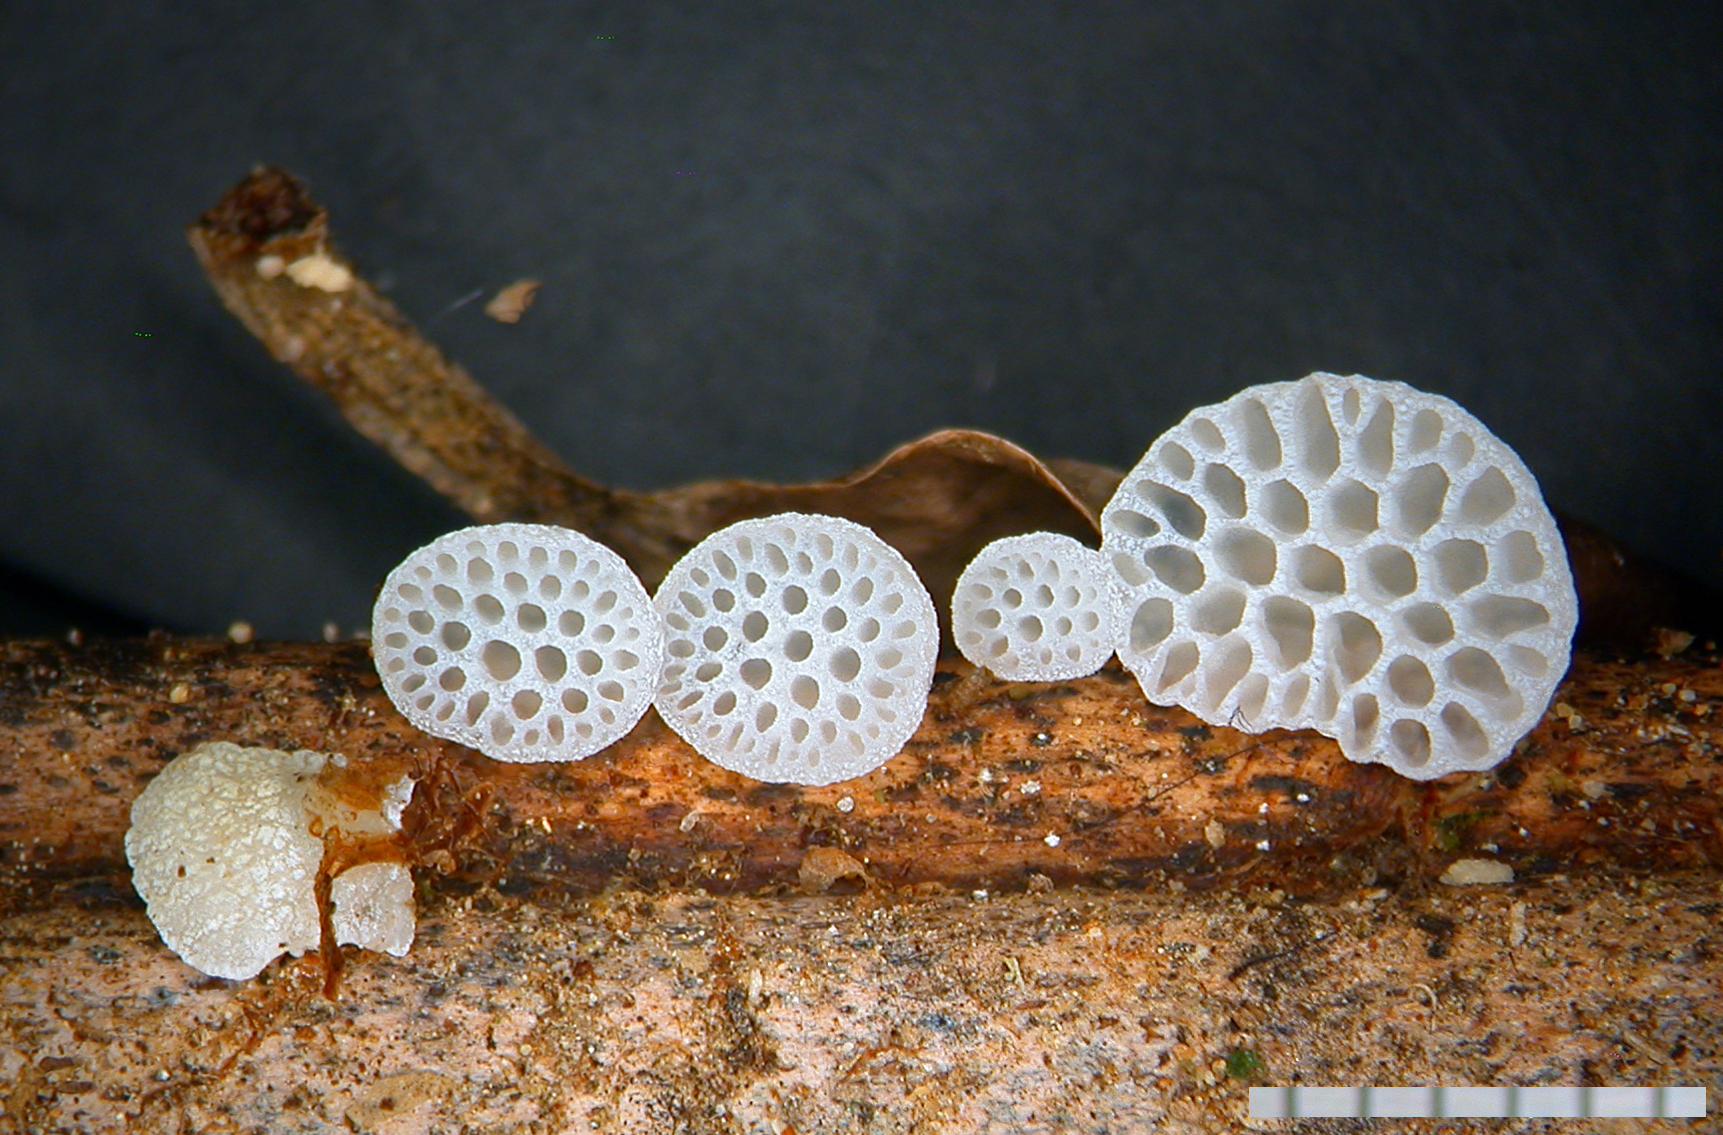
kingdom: Fungi
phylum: Basidiomycota
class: Agaricomycetes
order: Agaricales
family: Mycenaceae
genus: Favolaschia
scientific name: Favolaschia cyatheae
